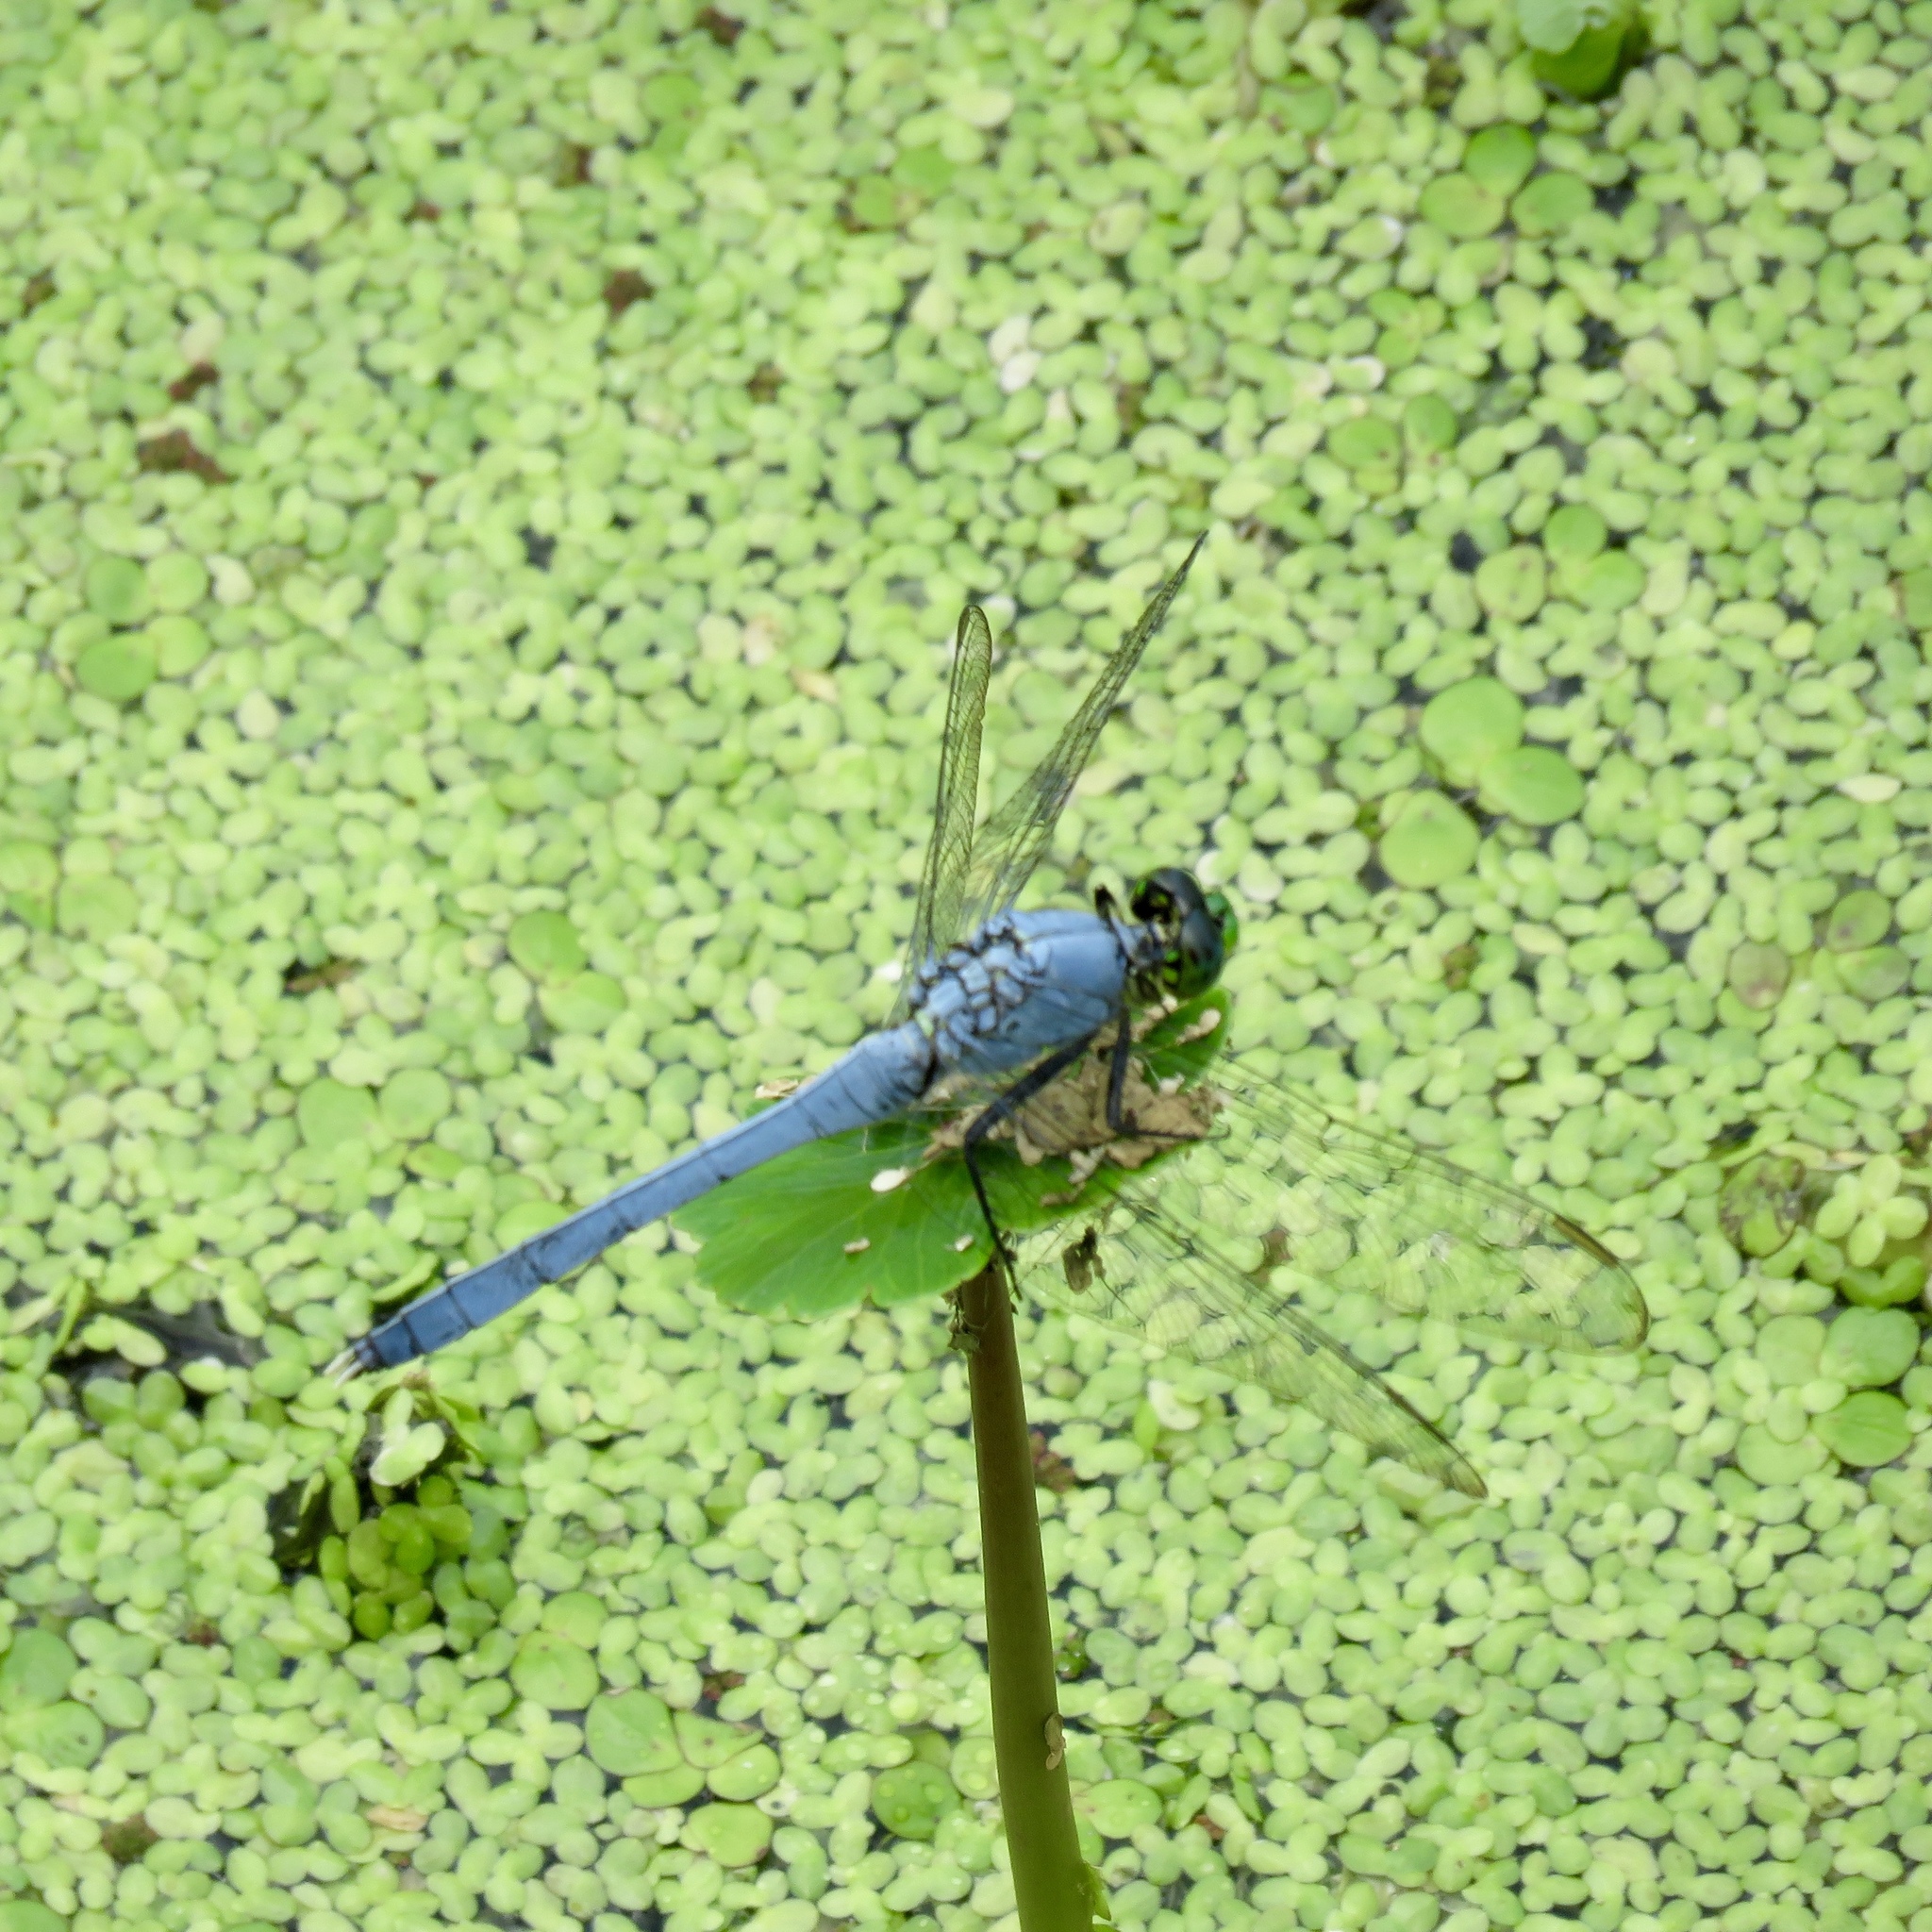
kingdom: Animalia
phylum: Arthropoda
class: Insecta
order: Odonata
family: Libellulidae
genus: Erythemis
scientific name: Erythemis simplicicollis
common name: Eastern pondhawk
